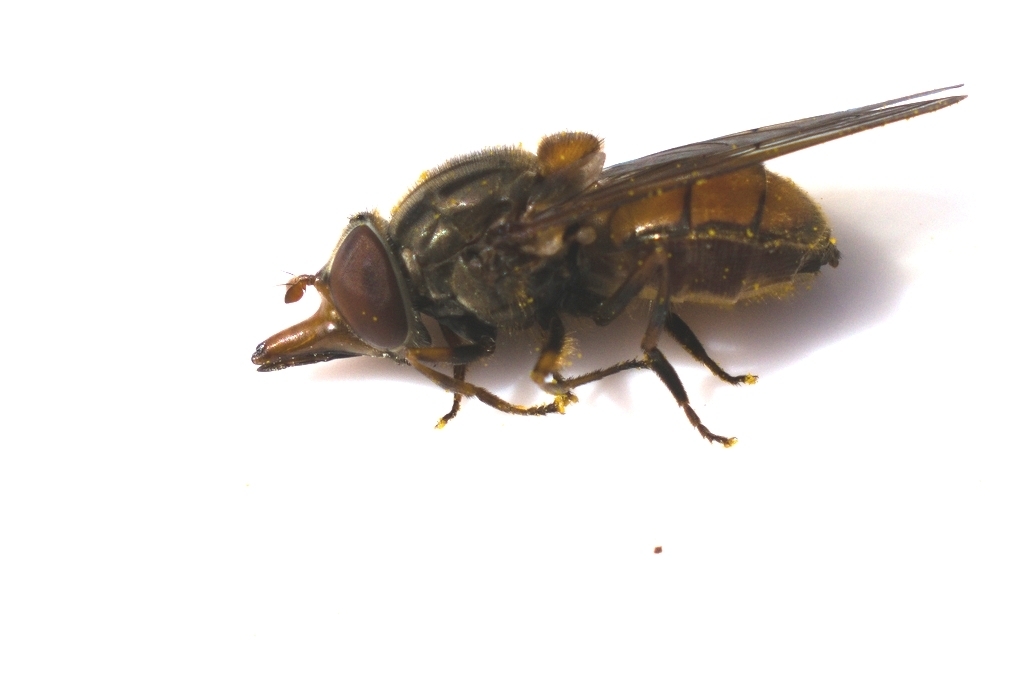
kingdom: Animalia
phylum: Arthropoda
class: Insecta
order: Diptera
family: Syrphidae
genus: Rhingia
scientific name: Rhingia campestris
